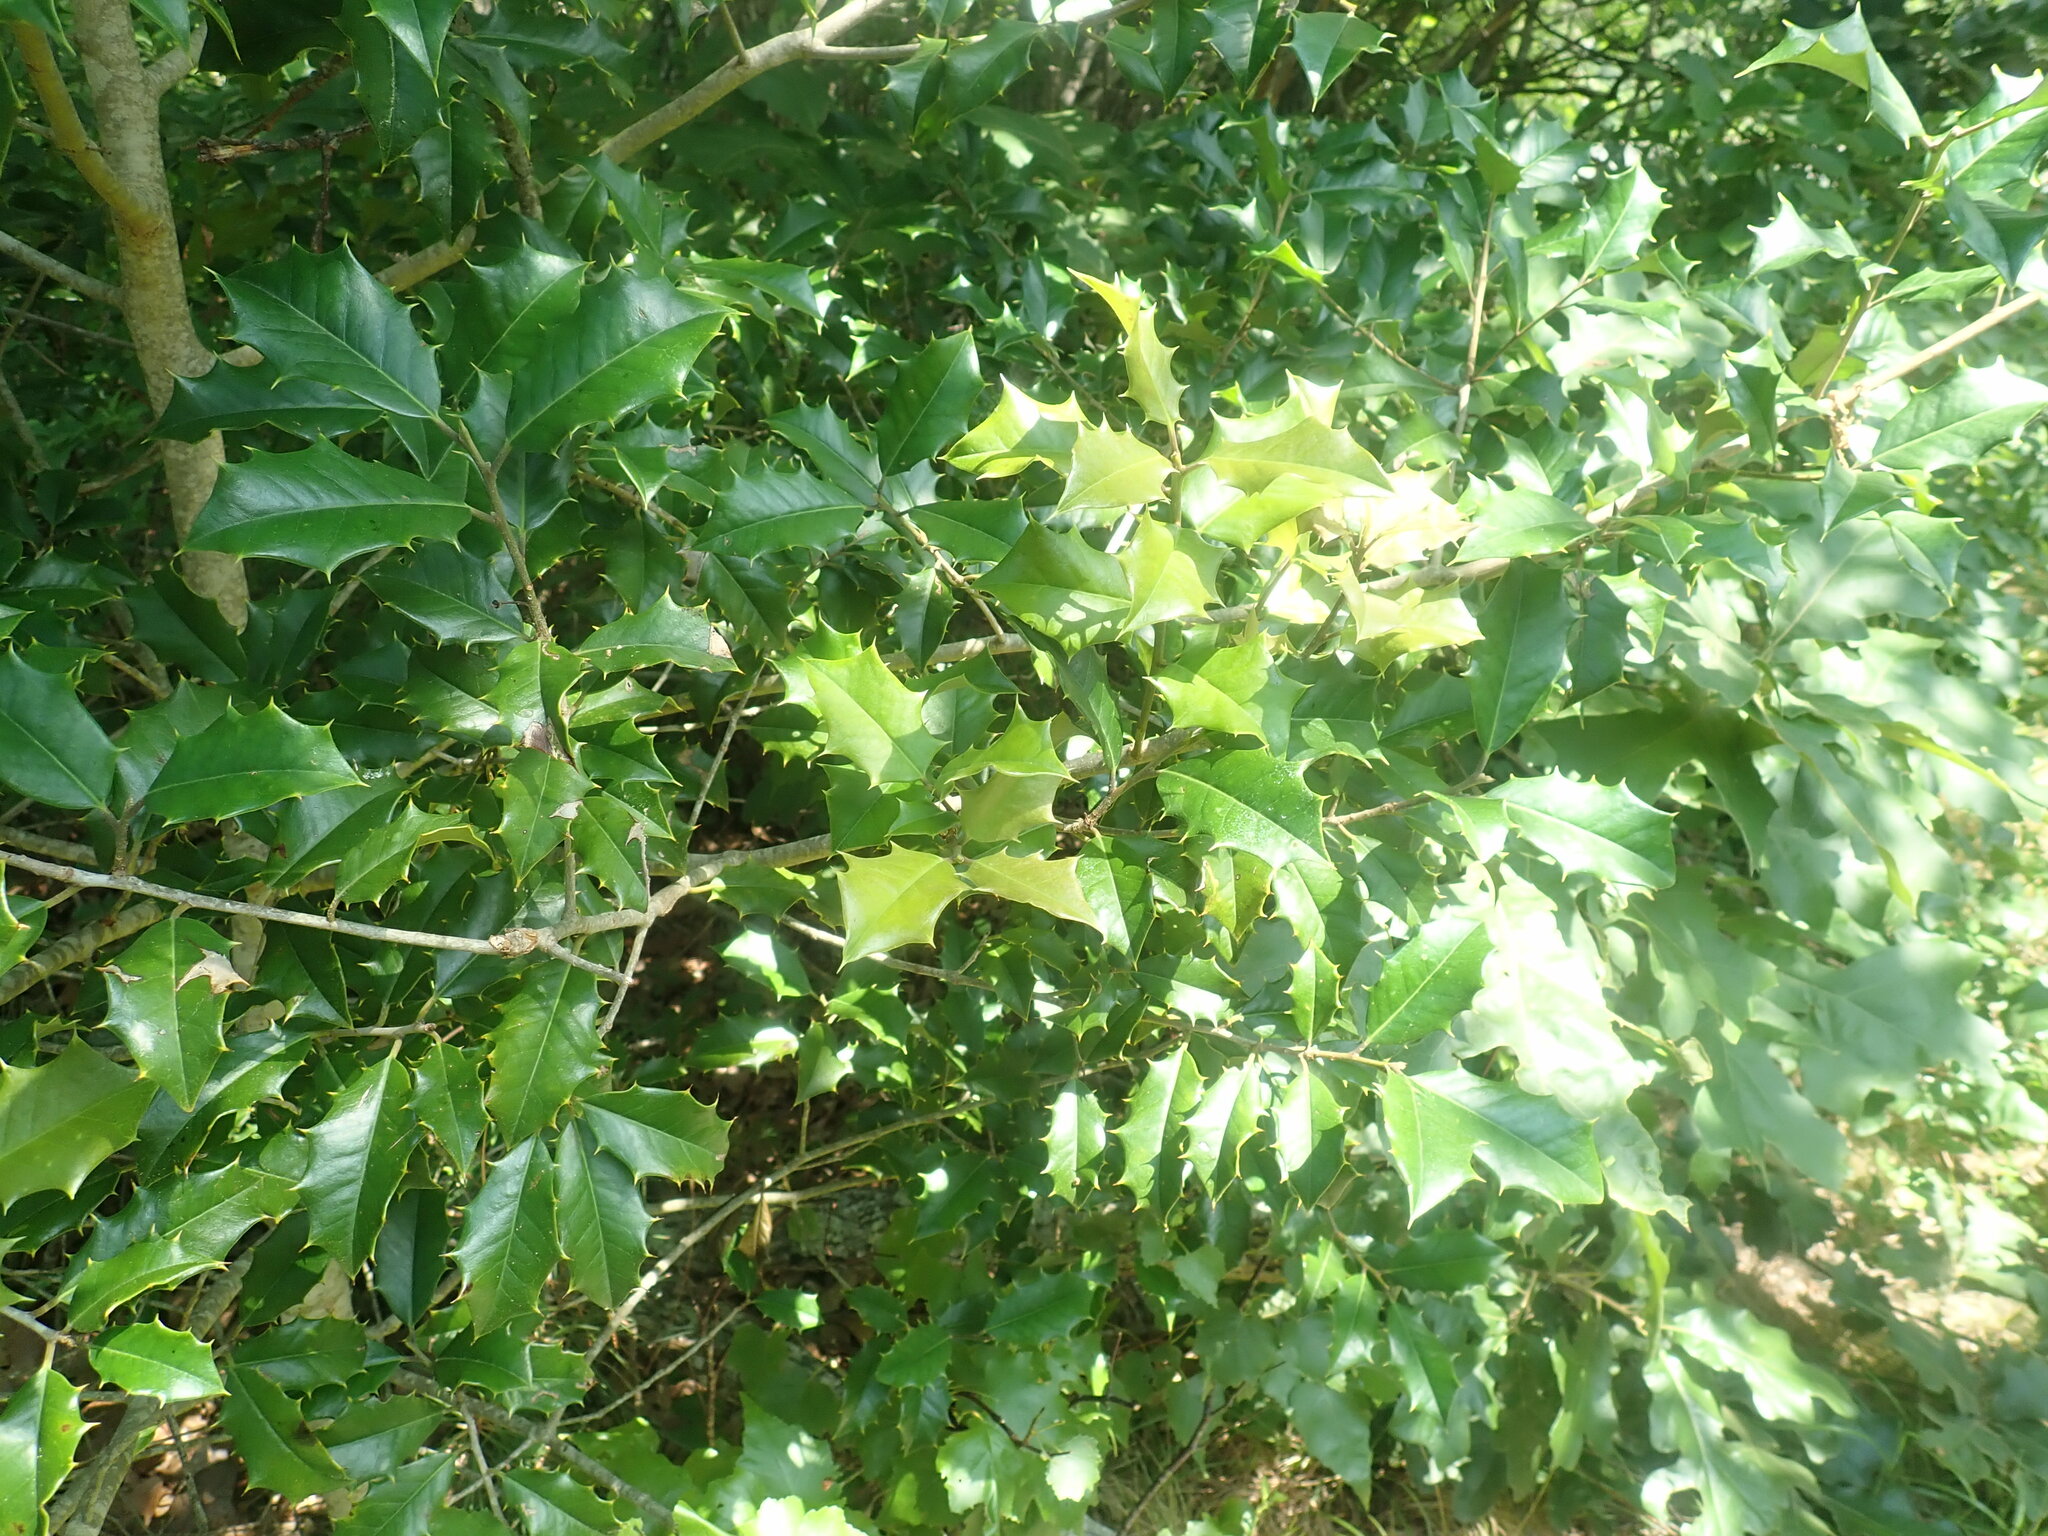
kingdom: Plantae
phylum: Tracheophyta
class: Magnoliopsida
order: Aquifoliales
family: Aquifoliaceae
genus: Ilex
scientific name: Ilex opaca
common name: American holly
